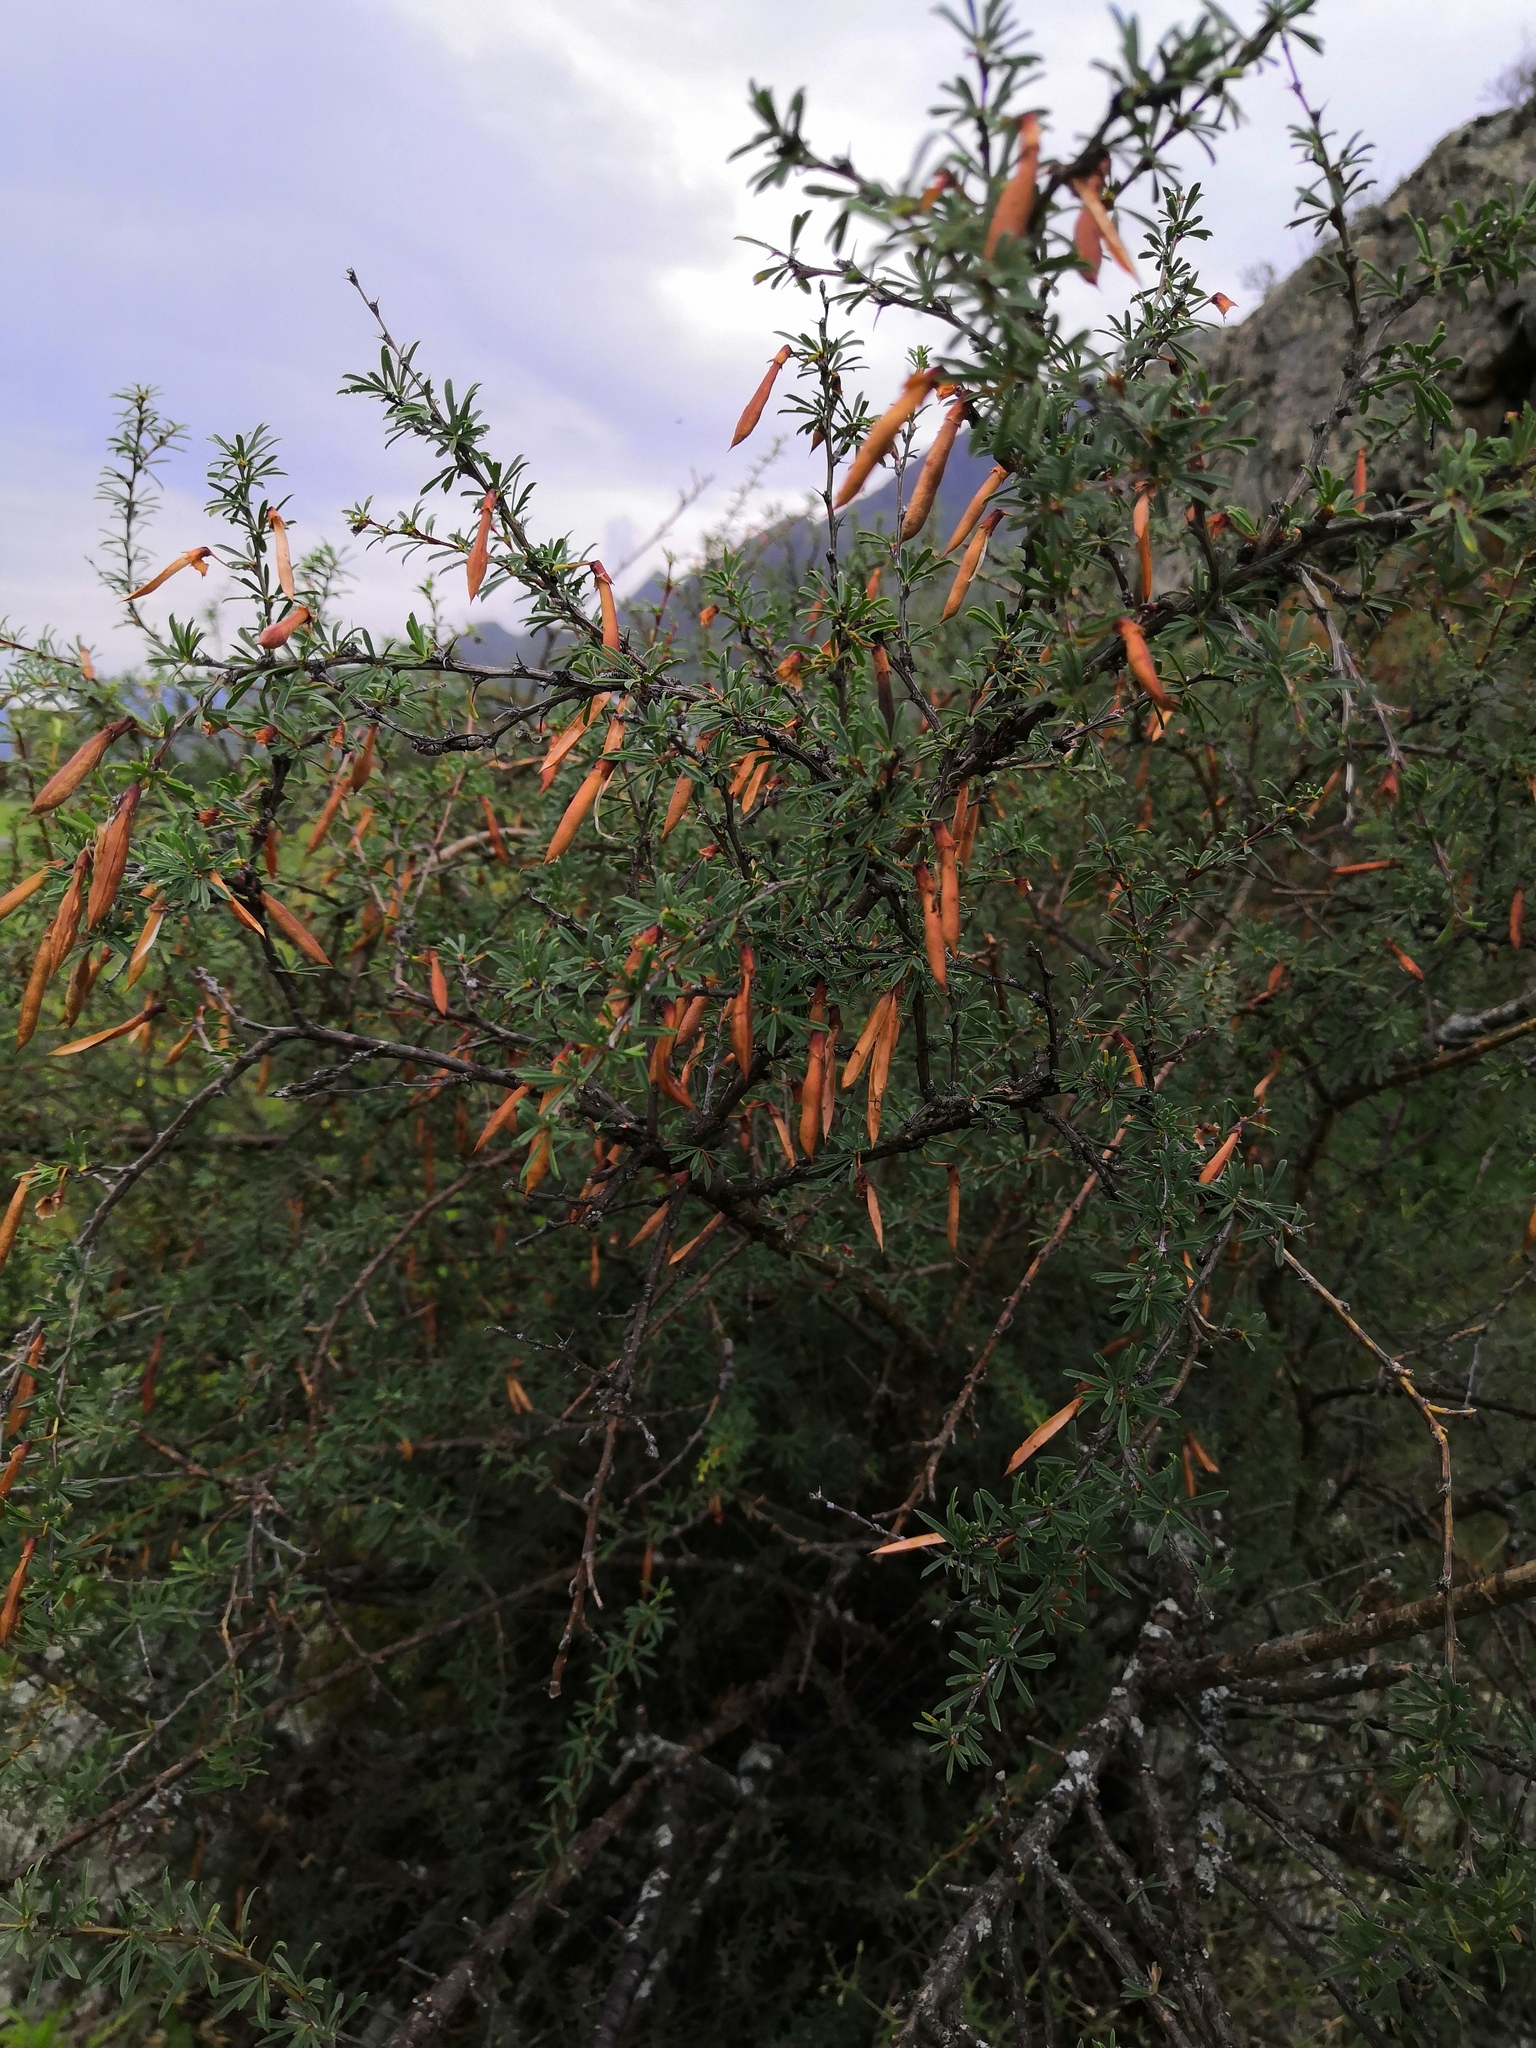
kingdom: Plantae
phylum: Tracheophyta
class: Magnoliopsida
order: Fabales
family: Fabaceae
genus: Caragana
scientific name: Caragana pygmaea
